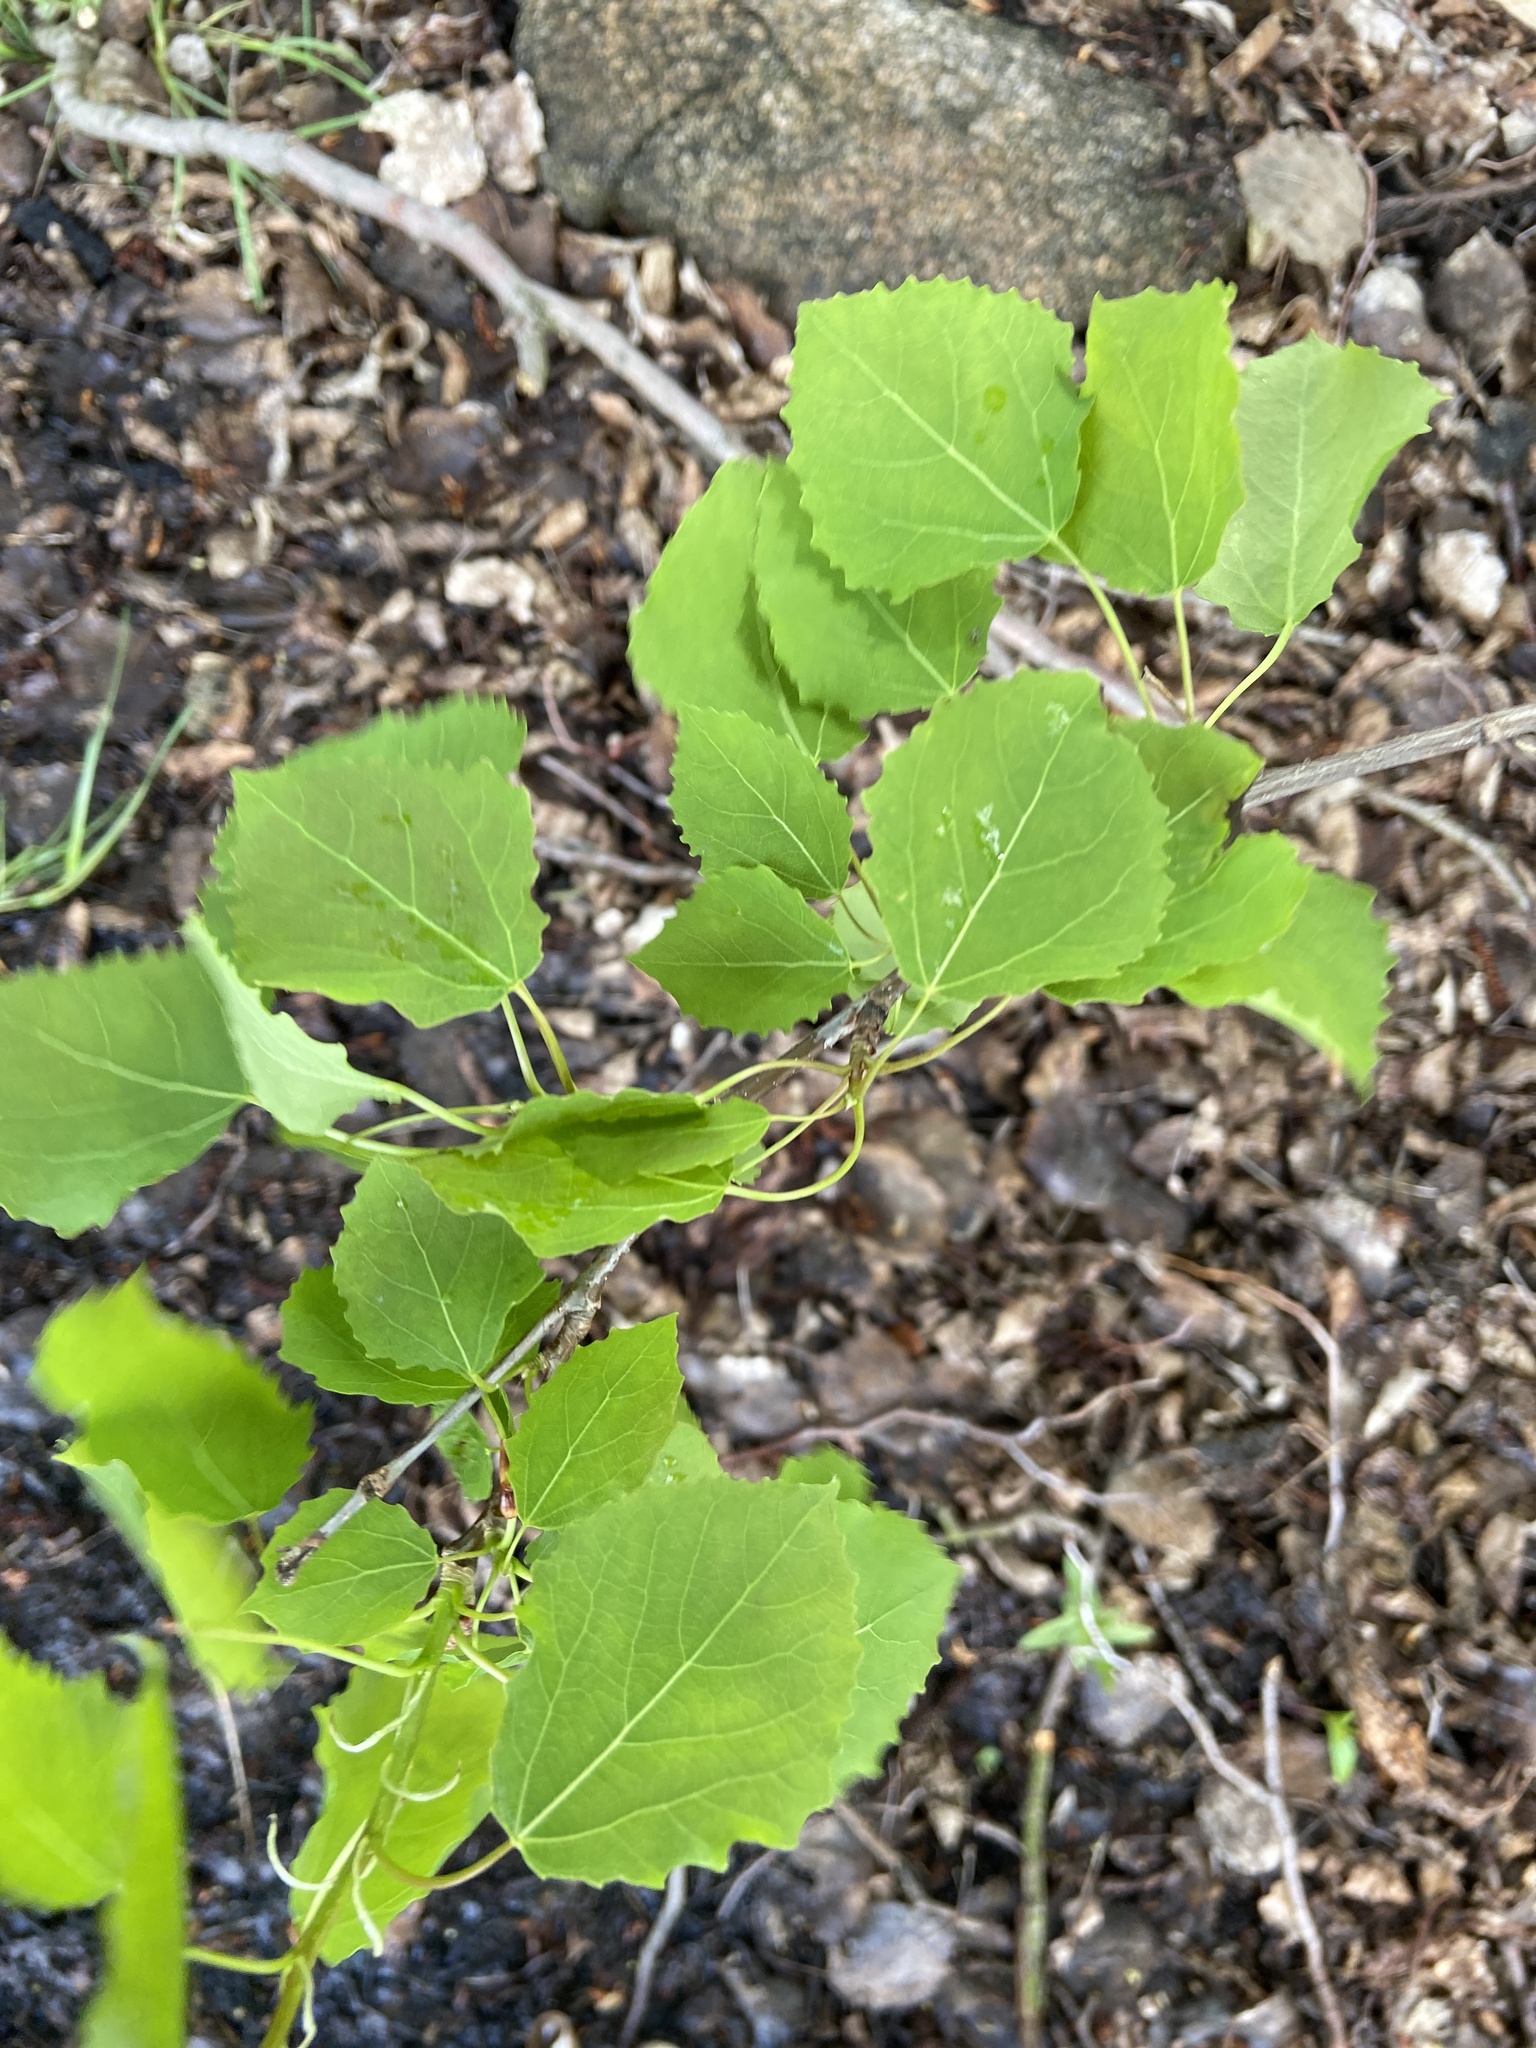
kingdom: Plantae
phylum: Tracheophyta
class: Magnoliopsida
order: Malpighiales
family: Salicaceae
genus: Populus
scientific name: Populus tremula
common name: European aspen
